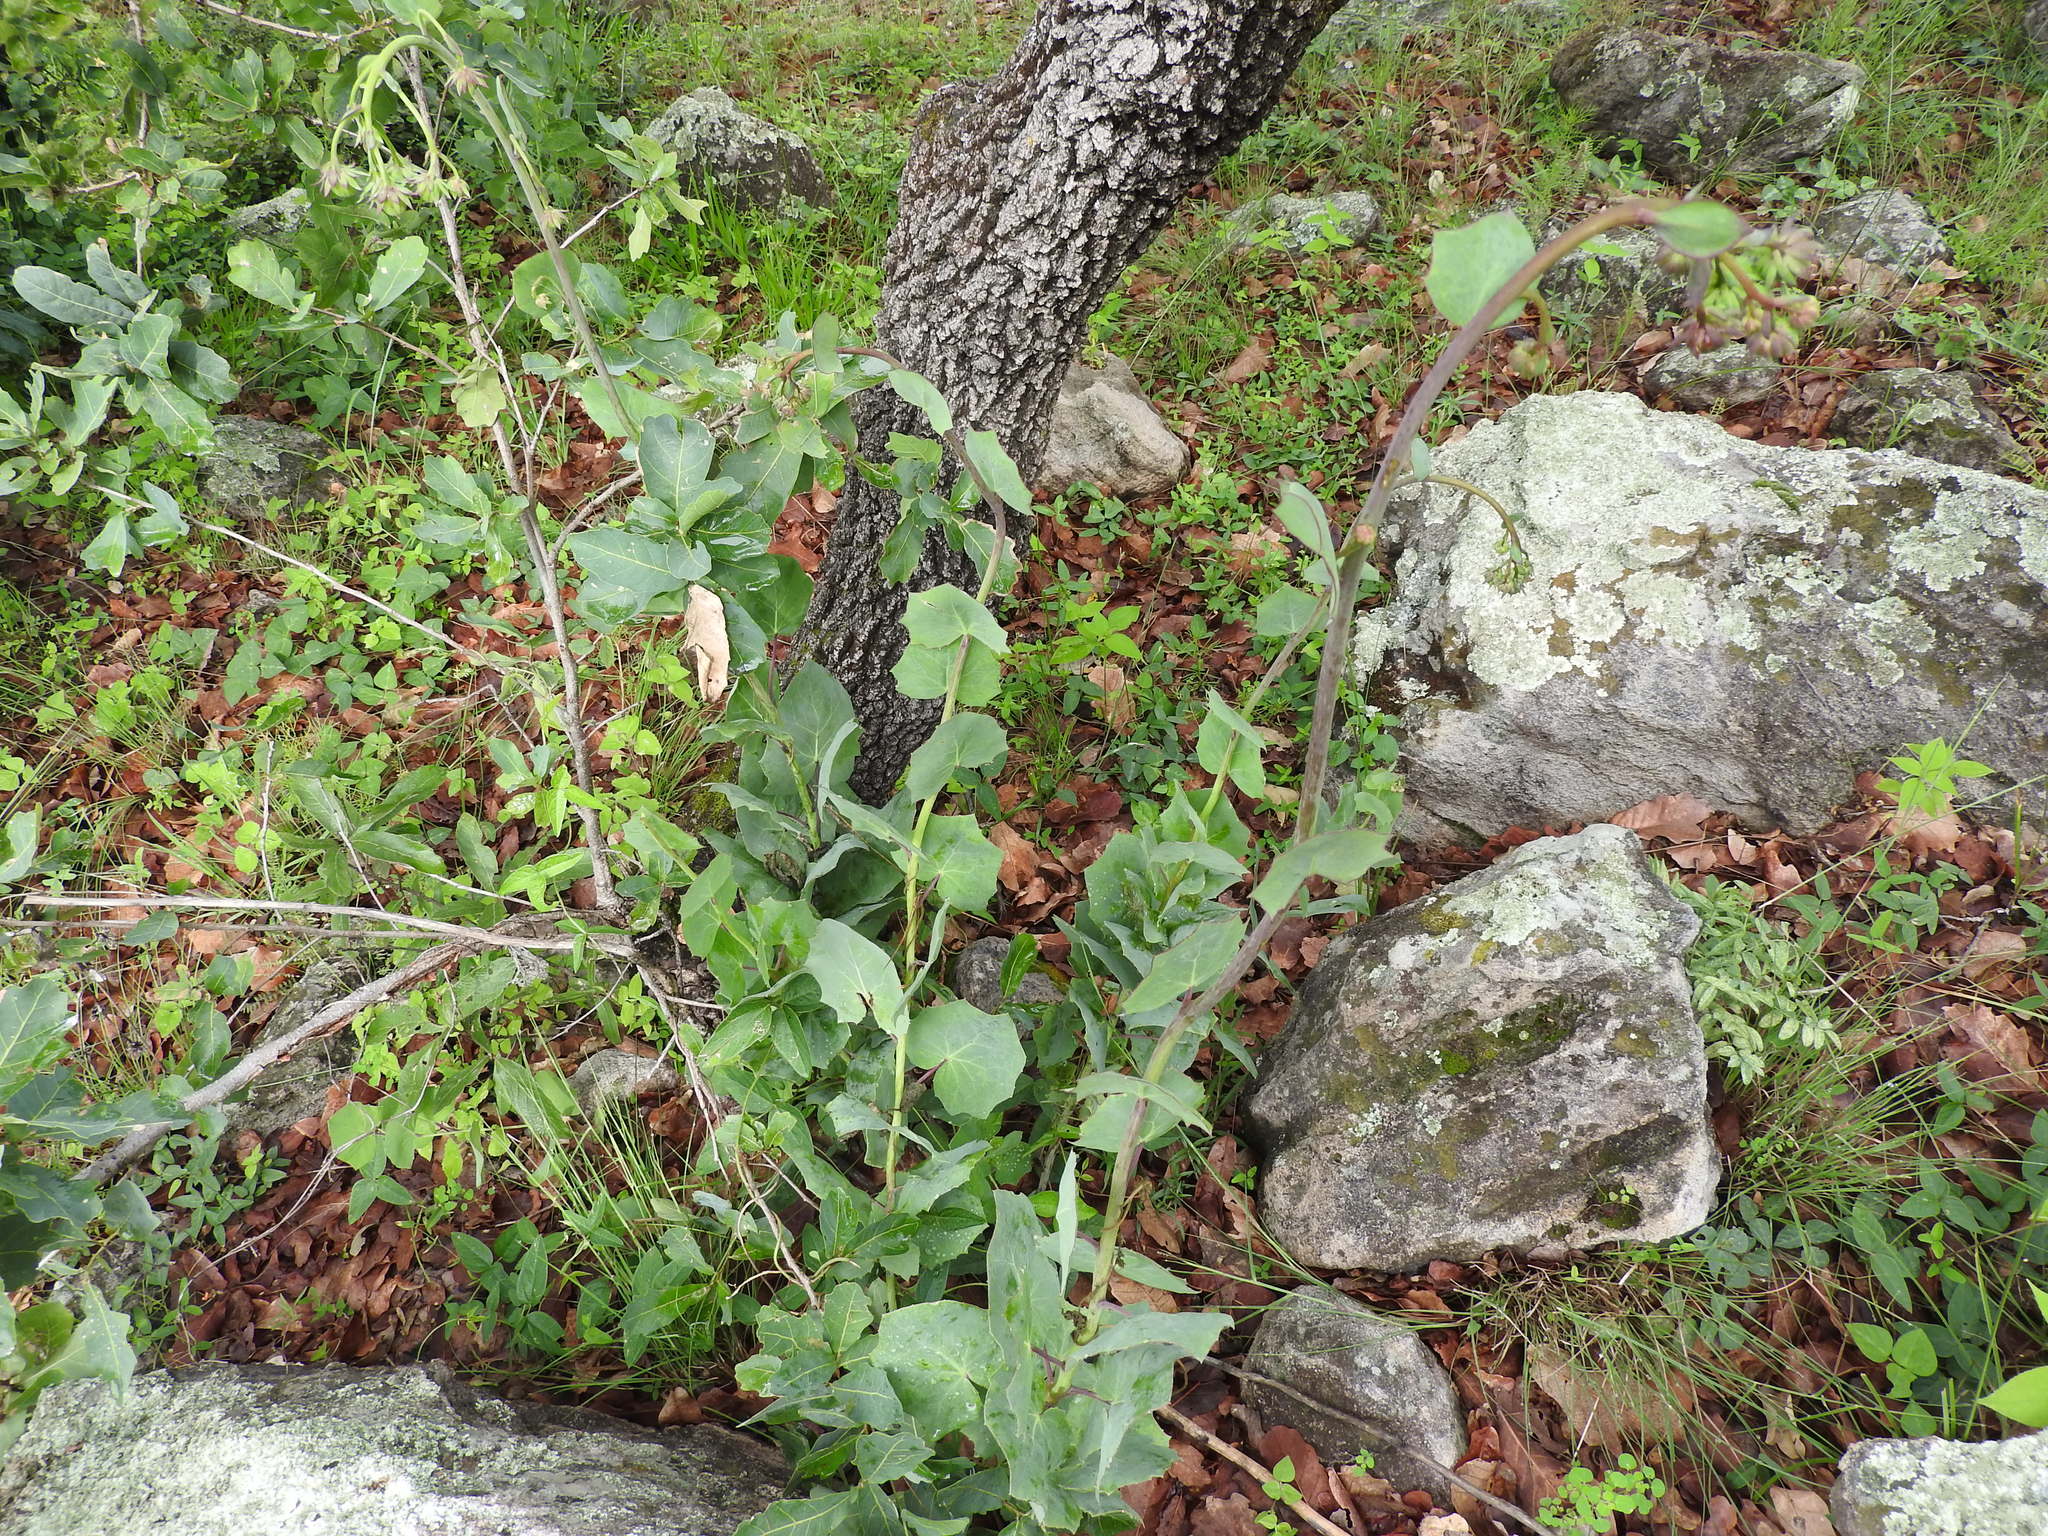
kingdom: Plantae
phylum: Tracheophyta
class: Magnoliopsida
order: Asterales
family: Asteraceae
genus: Roldana
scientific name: Roldana sessilifolia
